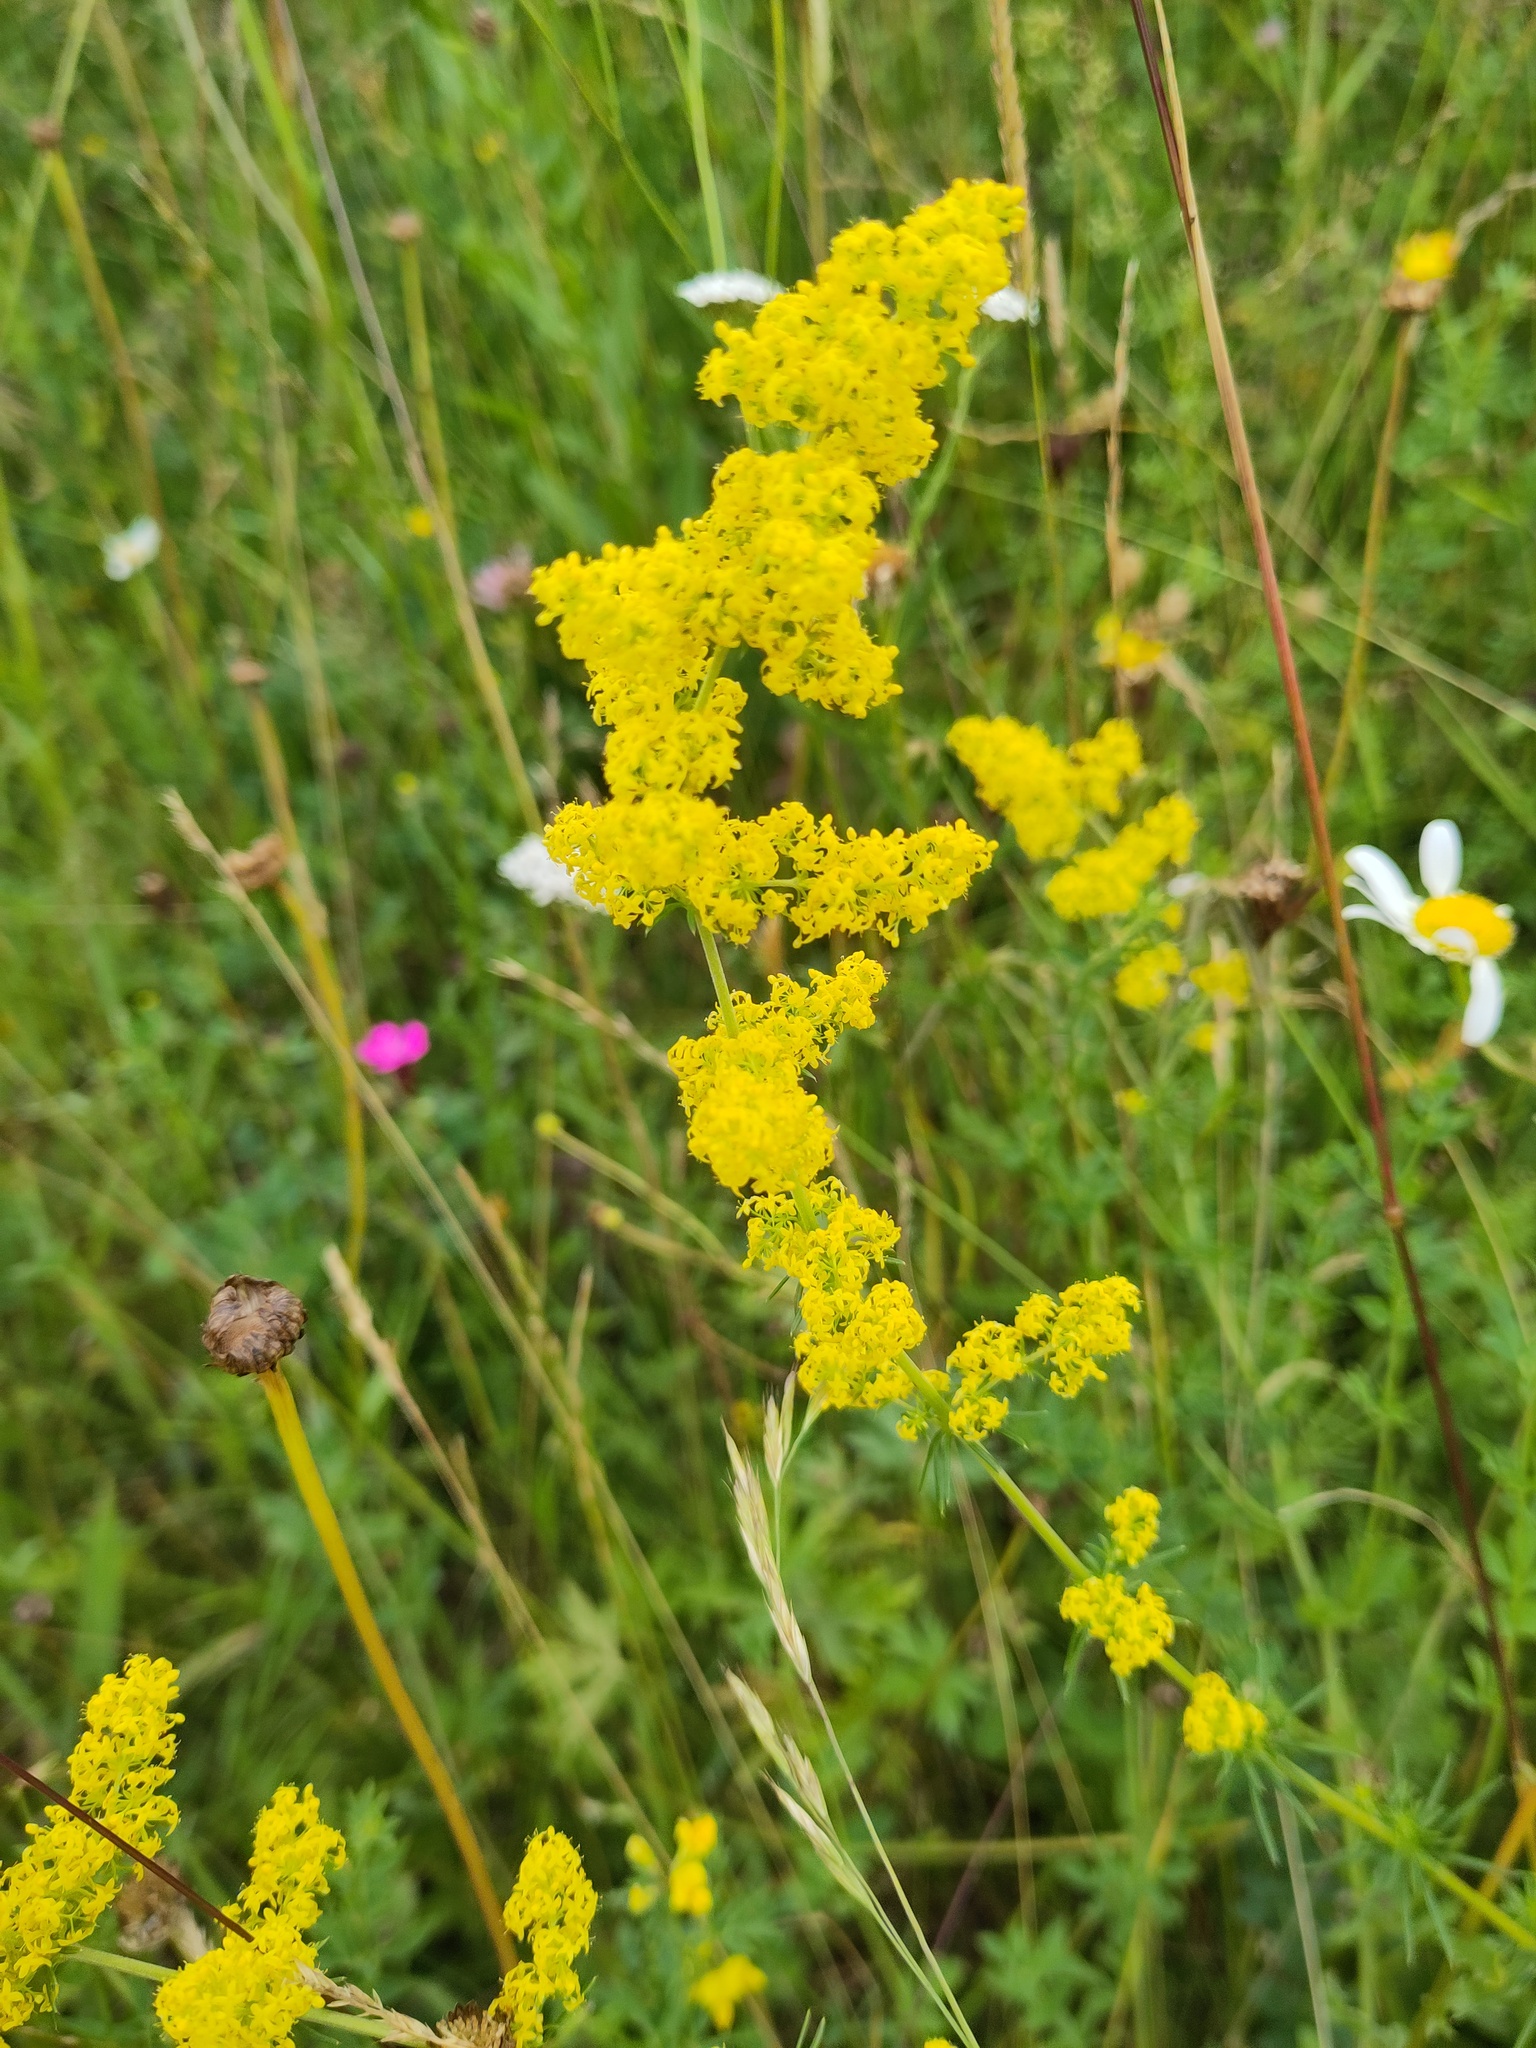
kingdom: Plantae
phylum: Tracheophyta
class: Magnoliopsida
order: Gentianales
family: Rubiaceae
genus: Galium
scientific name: Galium verum
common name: Lady's bedstraw
